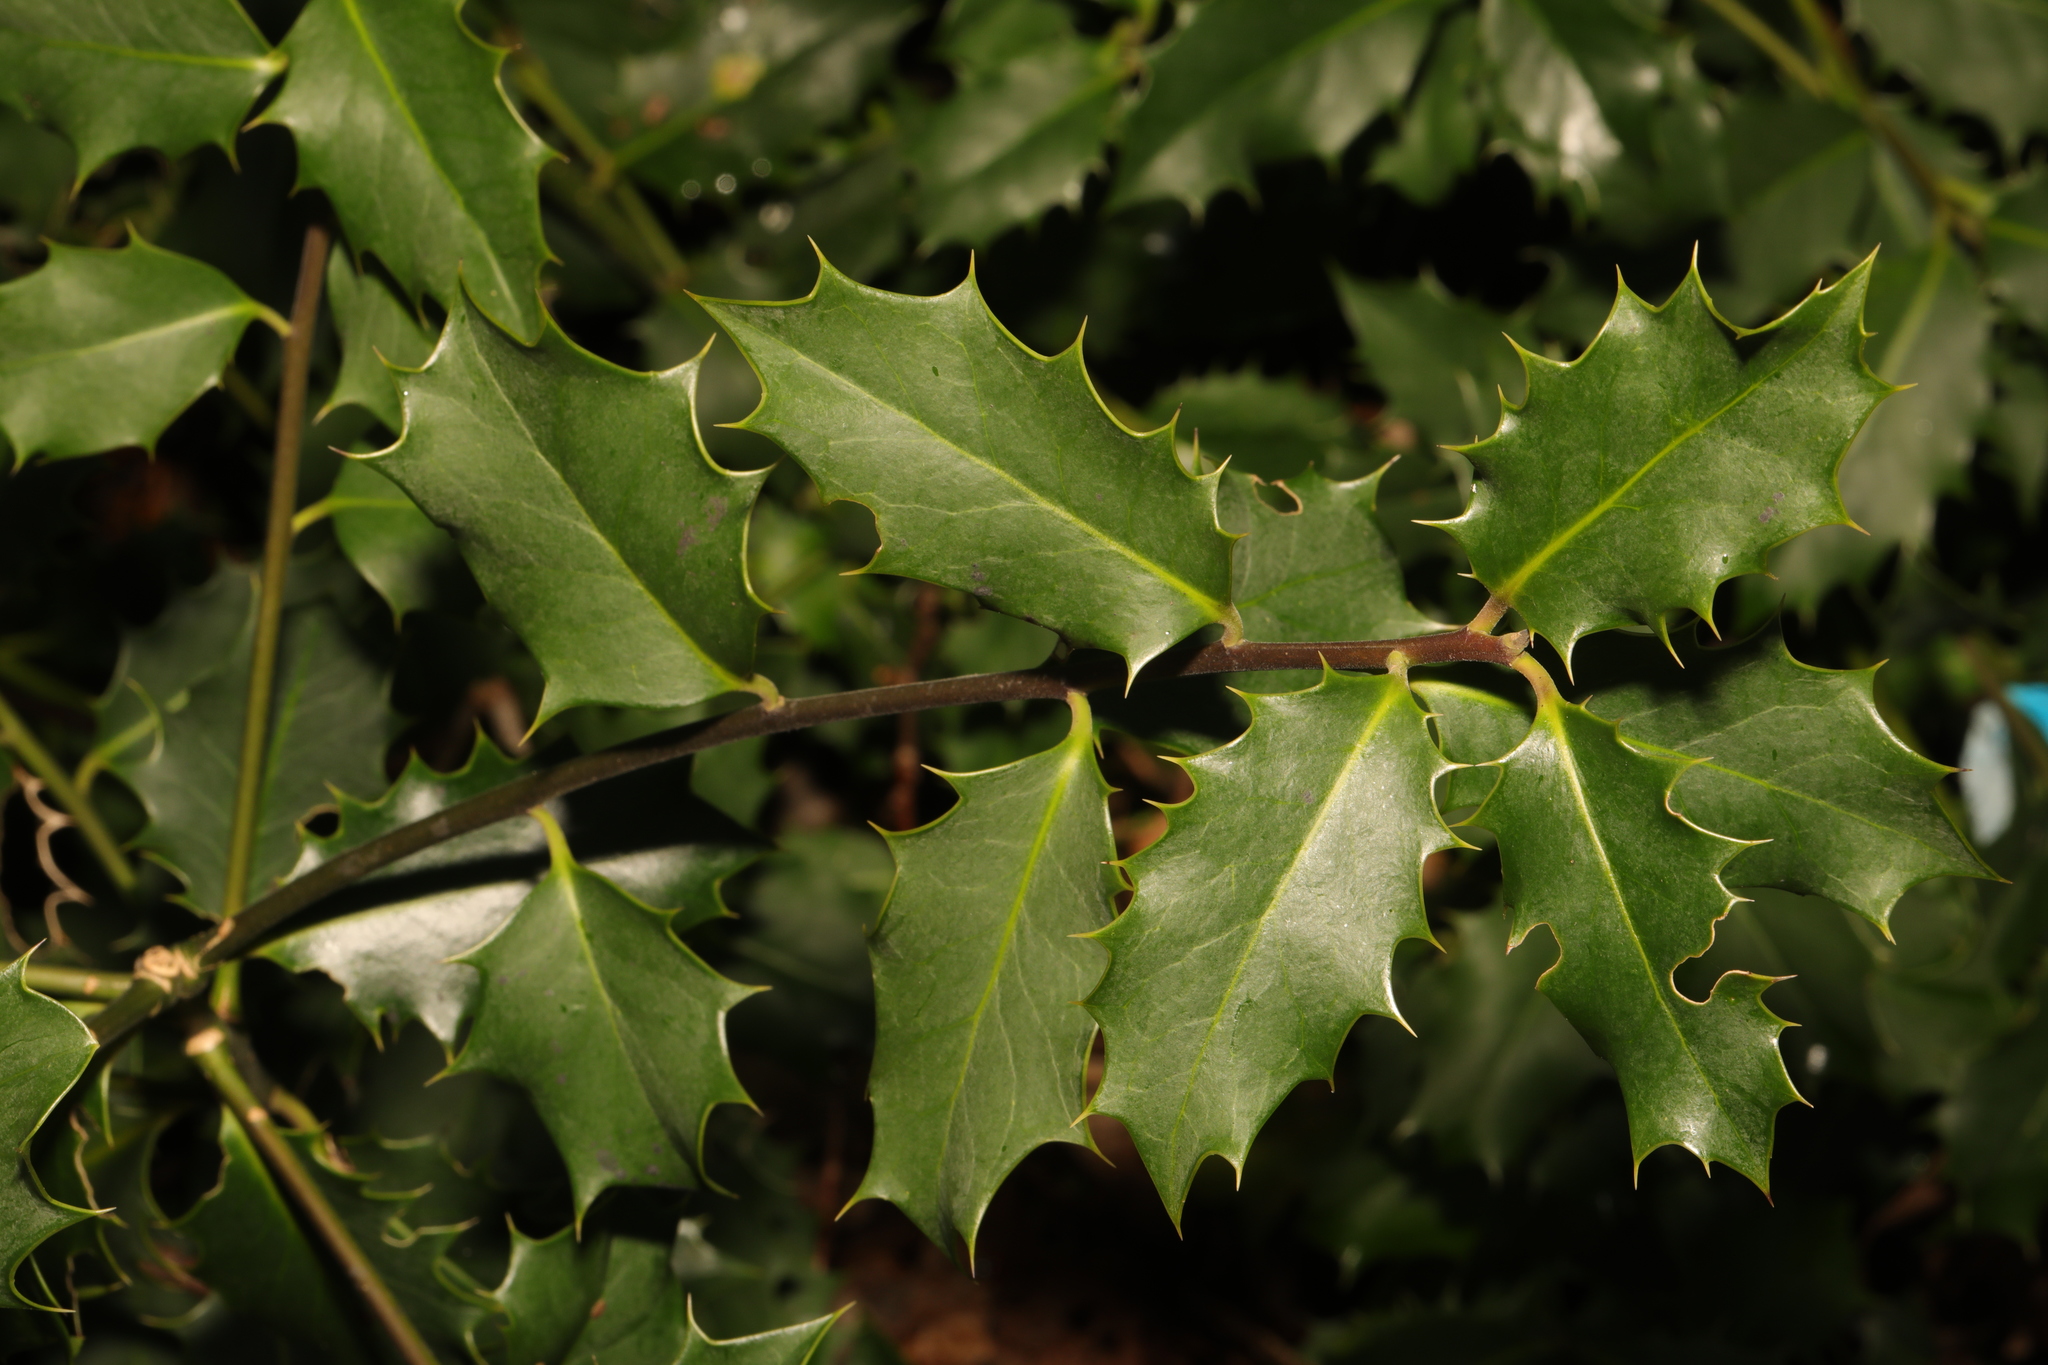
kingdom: Plantae
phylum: Tracheophyta
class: Magnoliopsida
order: Aquifoliales
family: Aquifoliaceae
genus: Ilex
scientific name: Ilex aquifolium
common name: English holly
